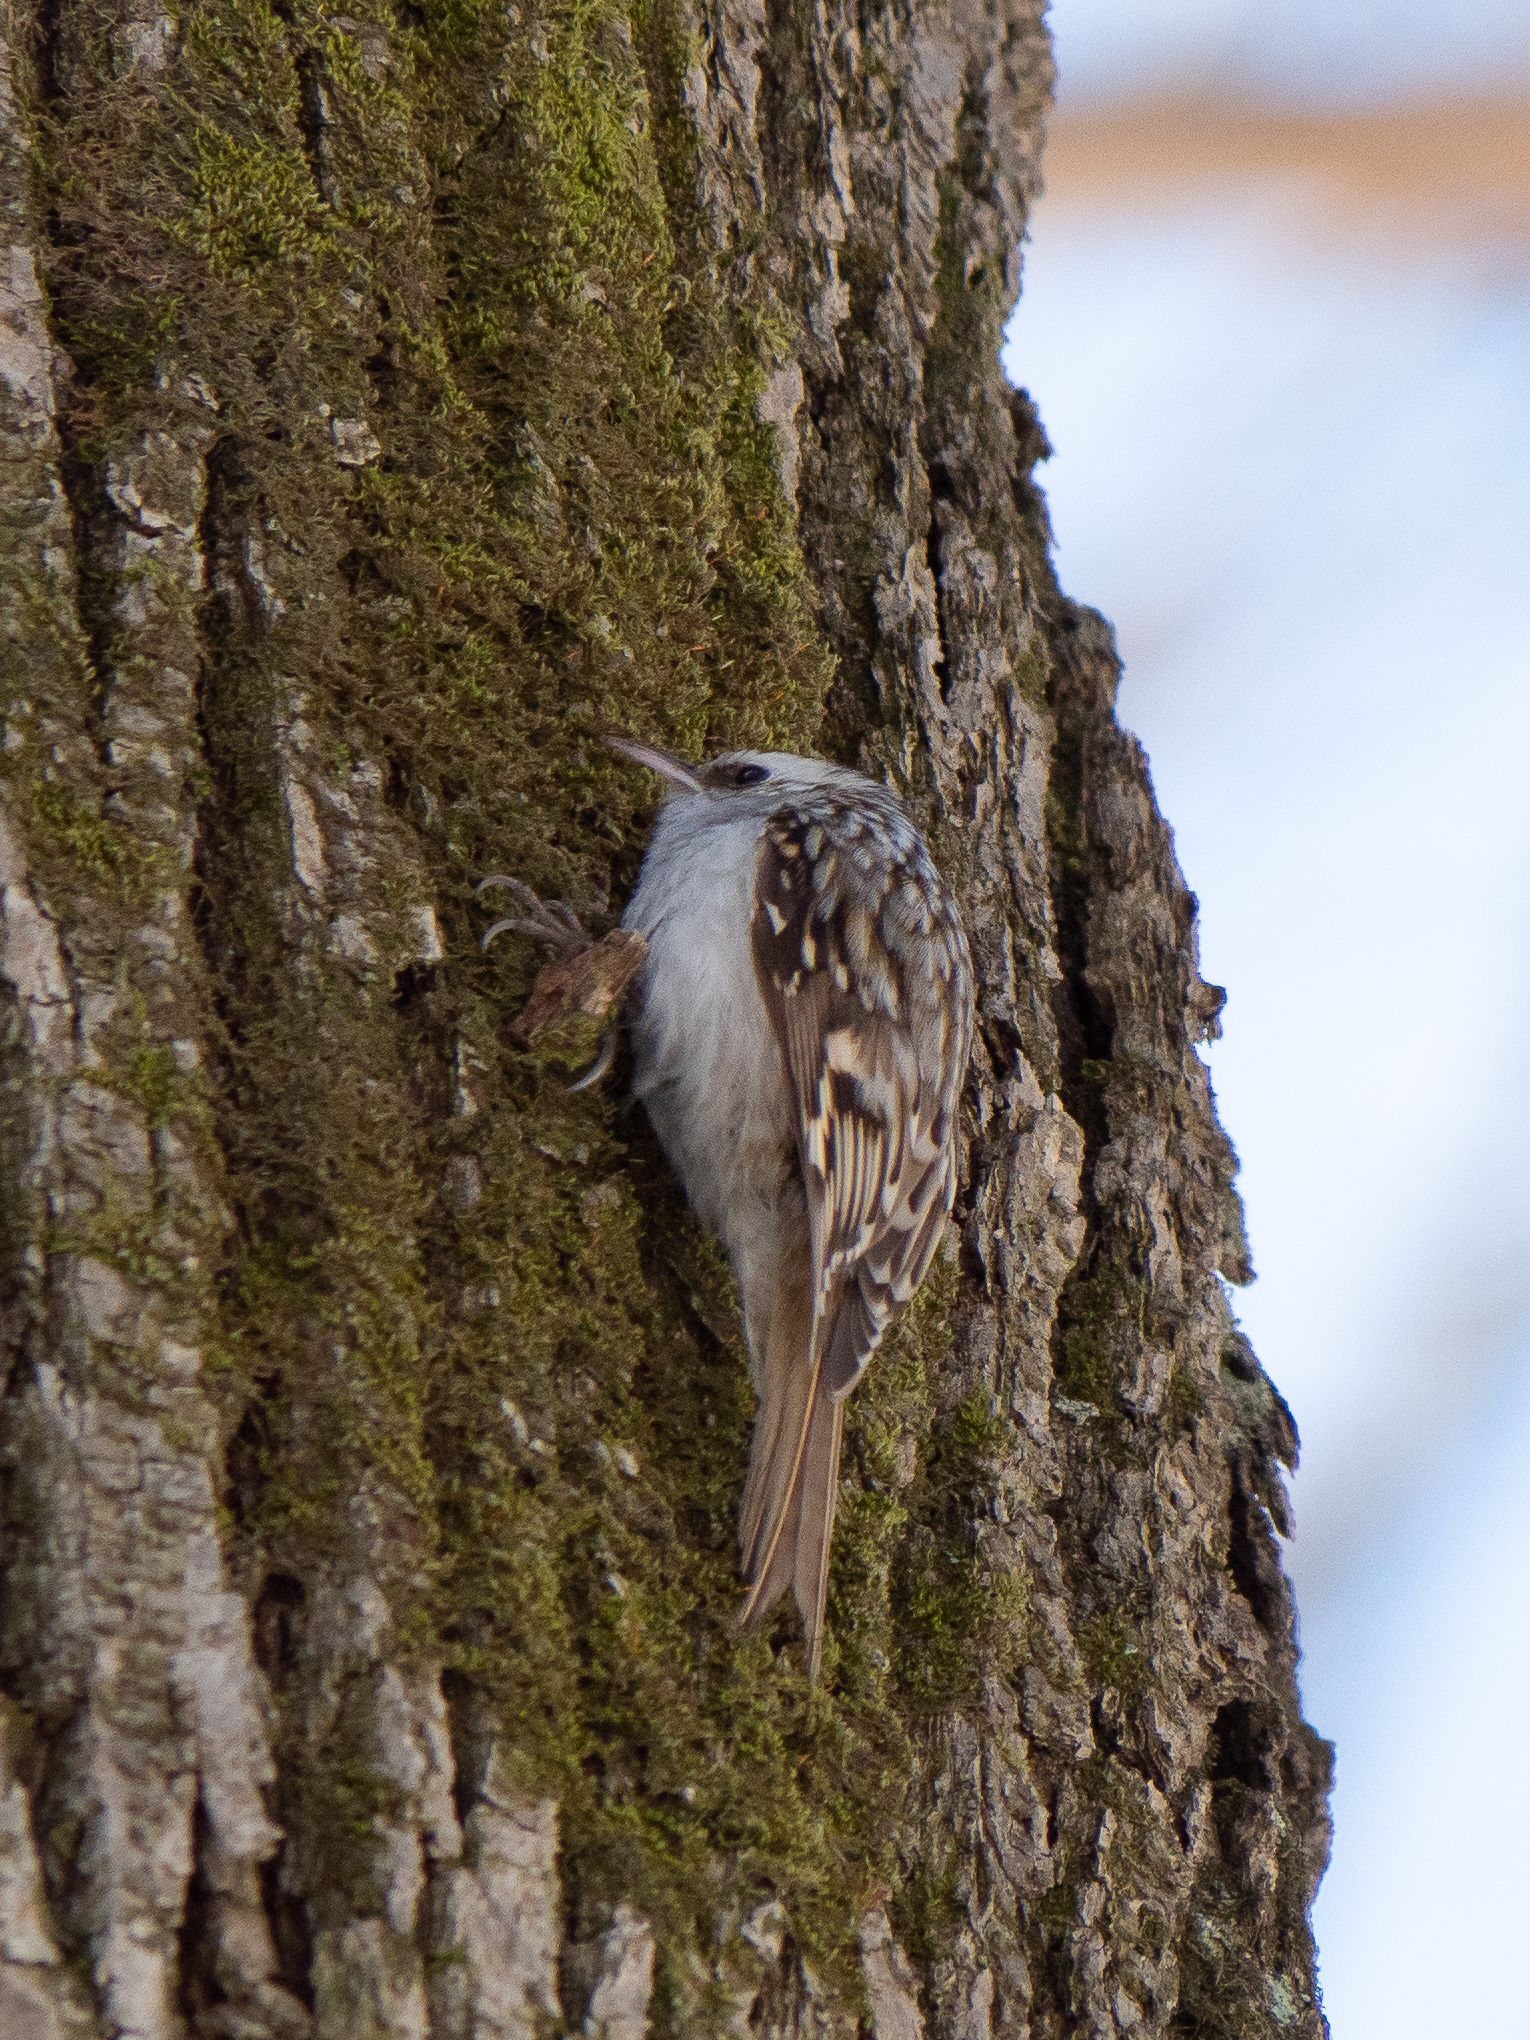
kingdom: Animalia
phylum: Chordata
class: Aves
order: Passeriformes
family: Certhiidae
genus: Certhia
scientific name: Certhia familiaris
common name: Eurasian treecreeper
